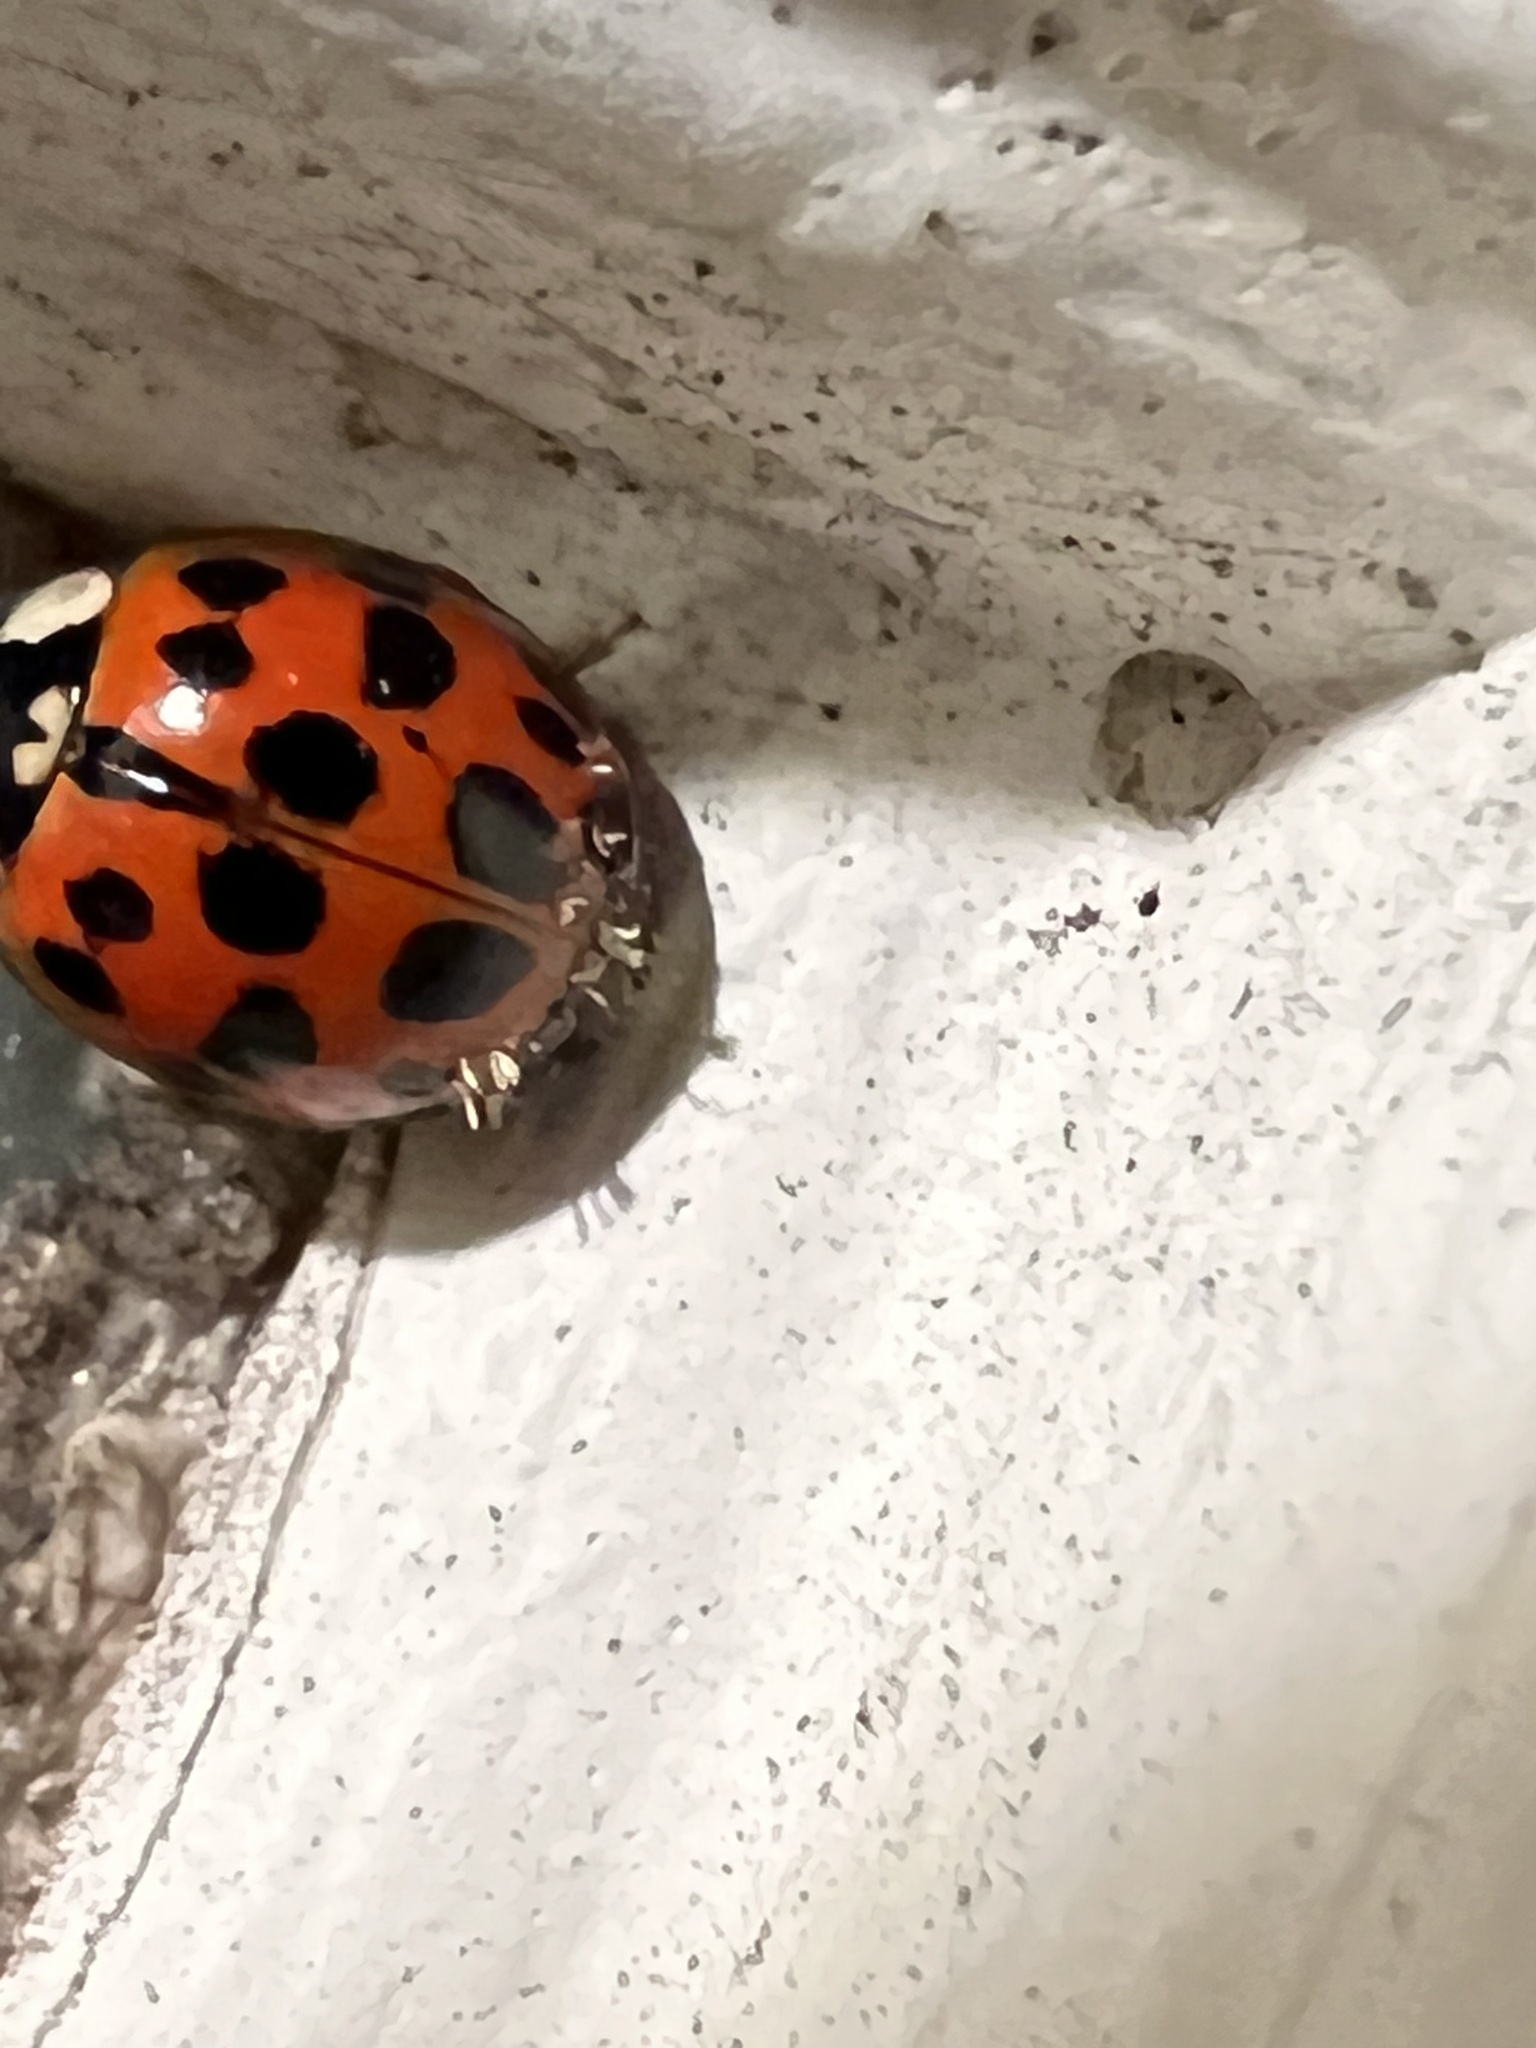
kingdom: Fungi
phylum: Ascomycota
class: Laboulbeniomycetes
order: Laboulbeniales
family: Laboulbeniaceae
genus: Hesperomyces
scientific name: Hesperomyces harmoniae
